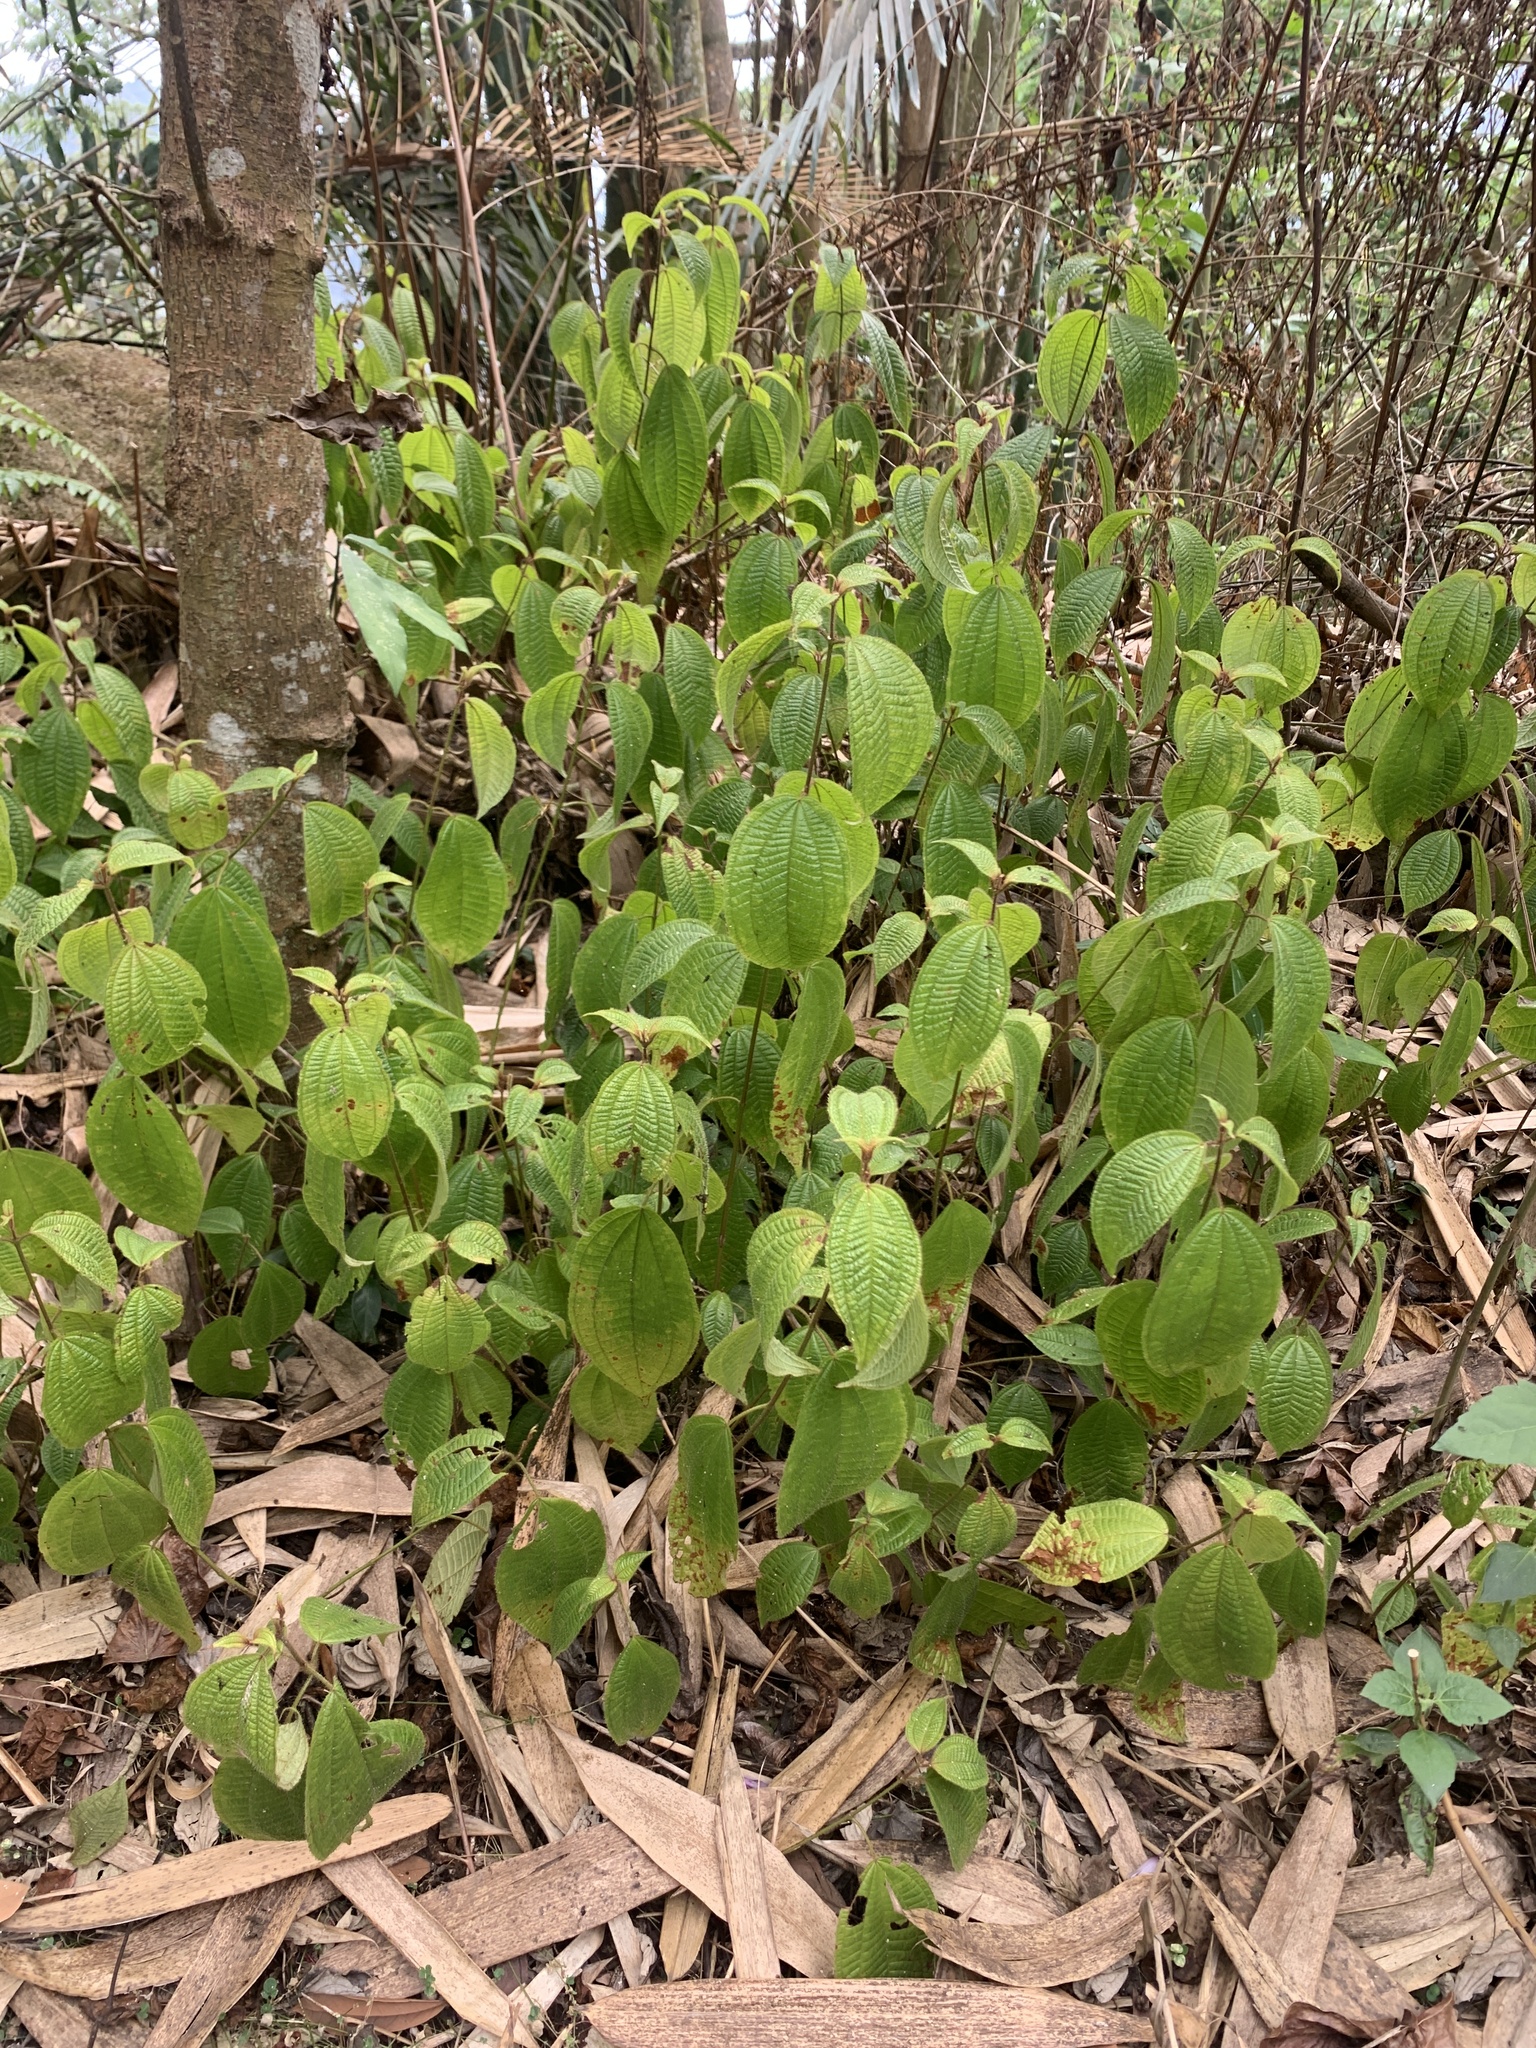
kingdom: Plantae
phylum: Tracheophyta
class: Magnoliopsida
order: Myrtales
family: Melastomataceae
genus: Miconia
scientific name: Miconia crenata
